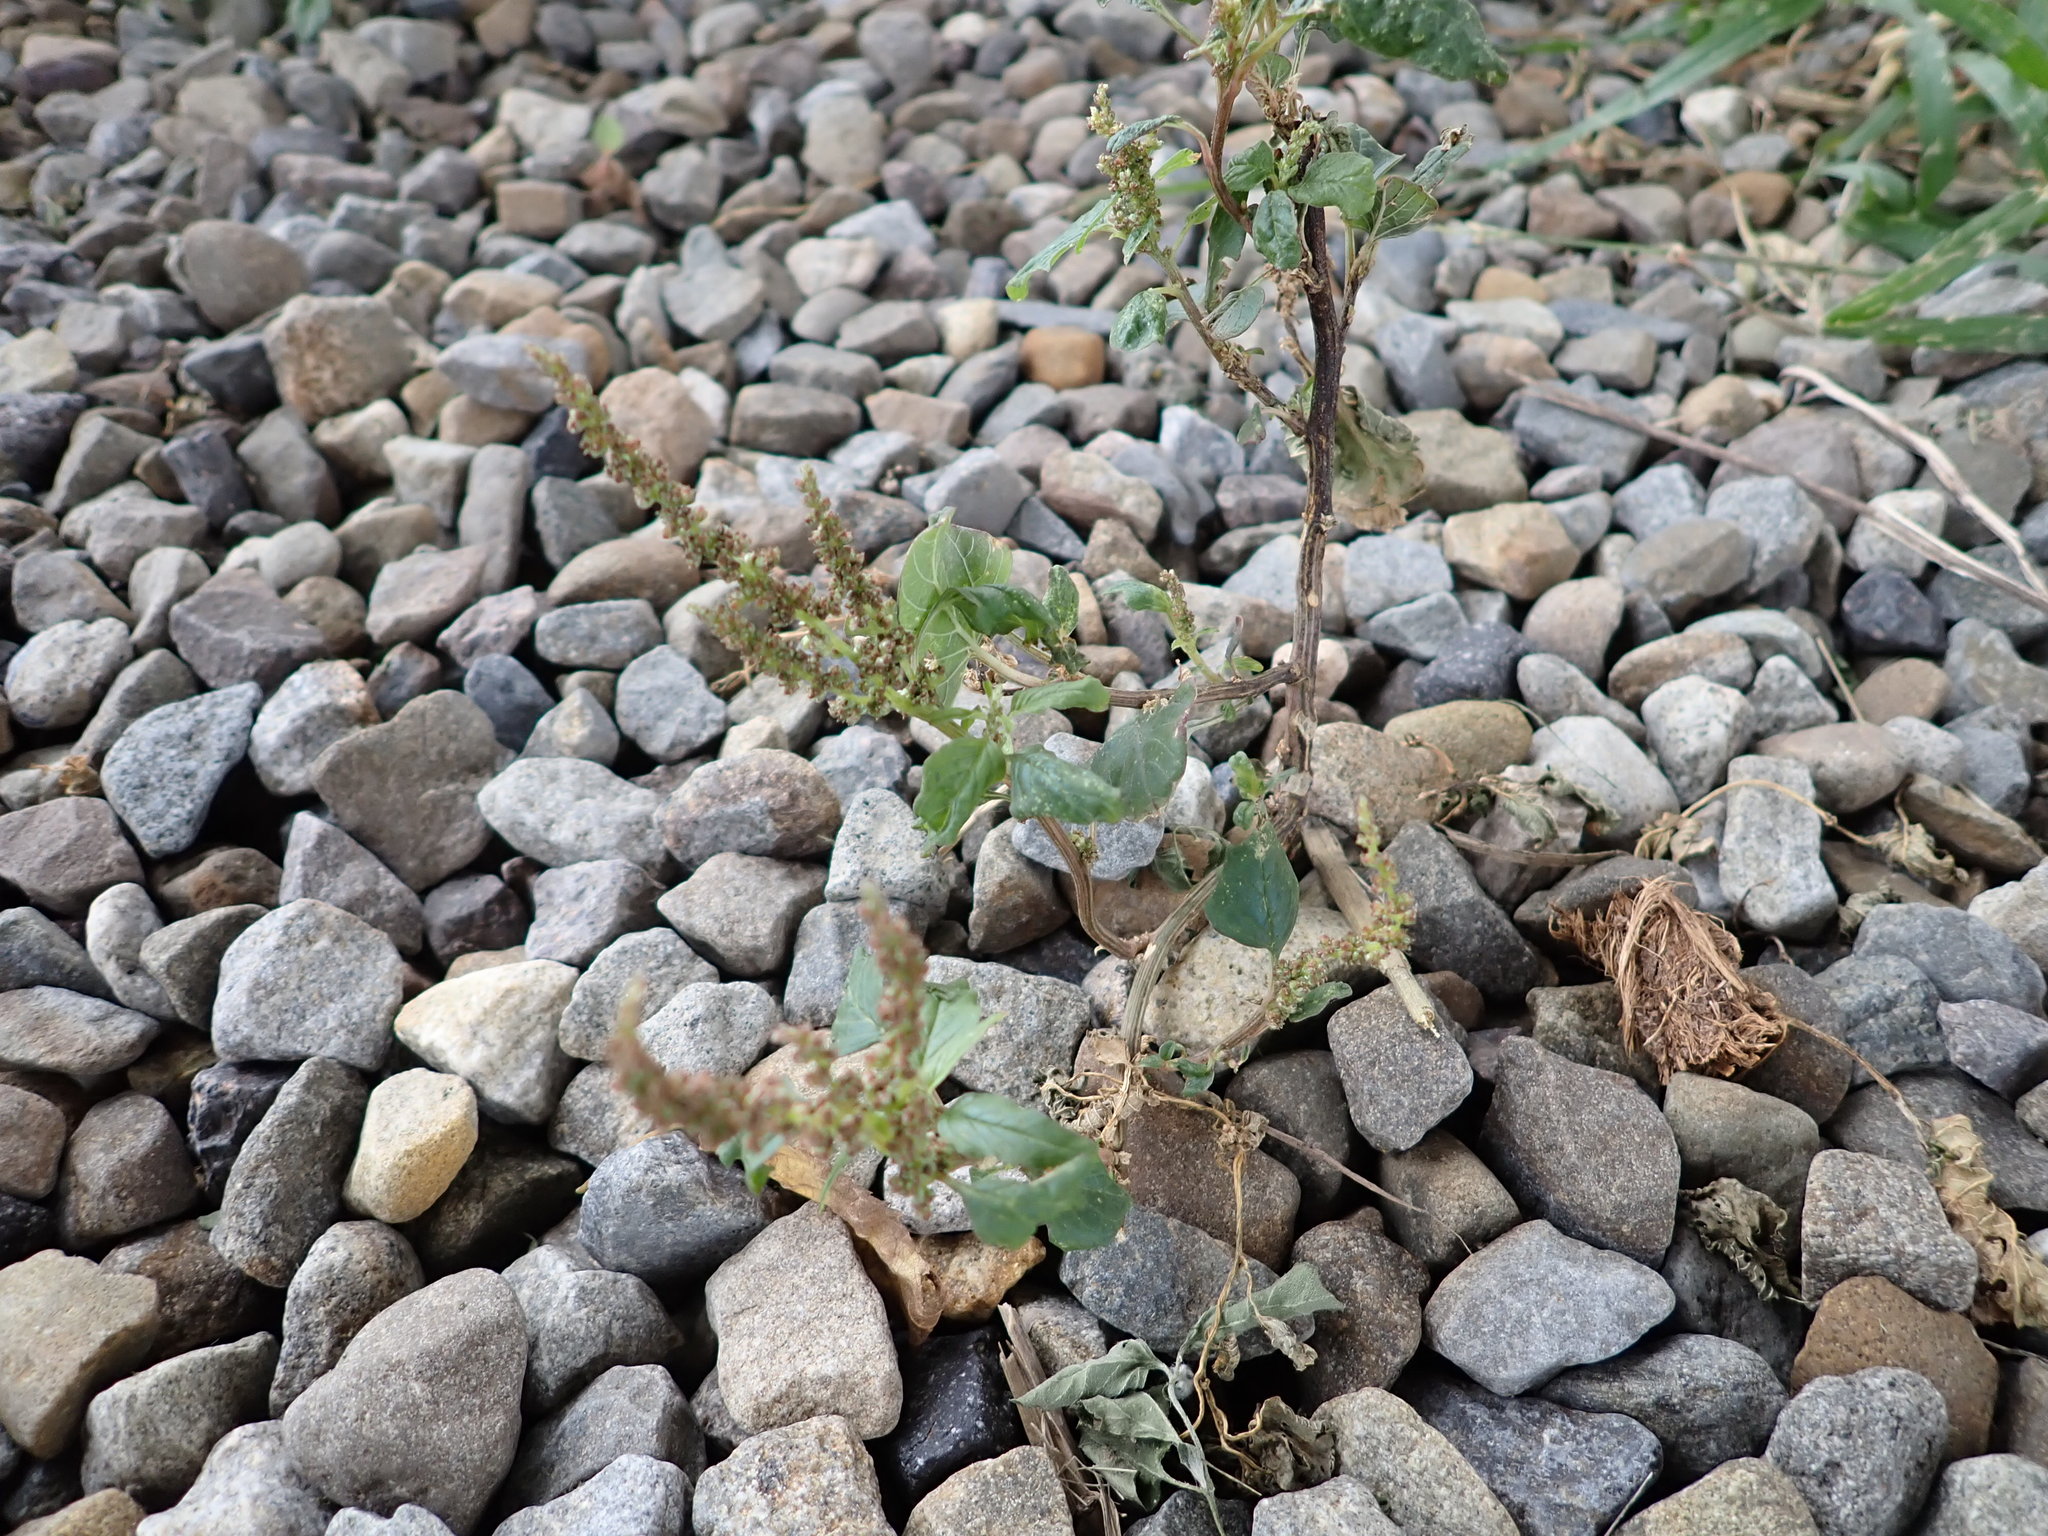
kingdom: Plantae
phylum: Tracheophyta
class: Magnoliopsida
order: Caryophyllales
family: Amaranthaceae
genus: Amaranthus
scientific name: Amaranthus viridis
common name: Slender amaranth
